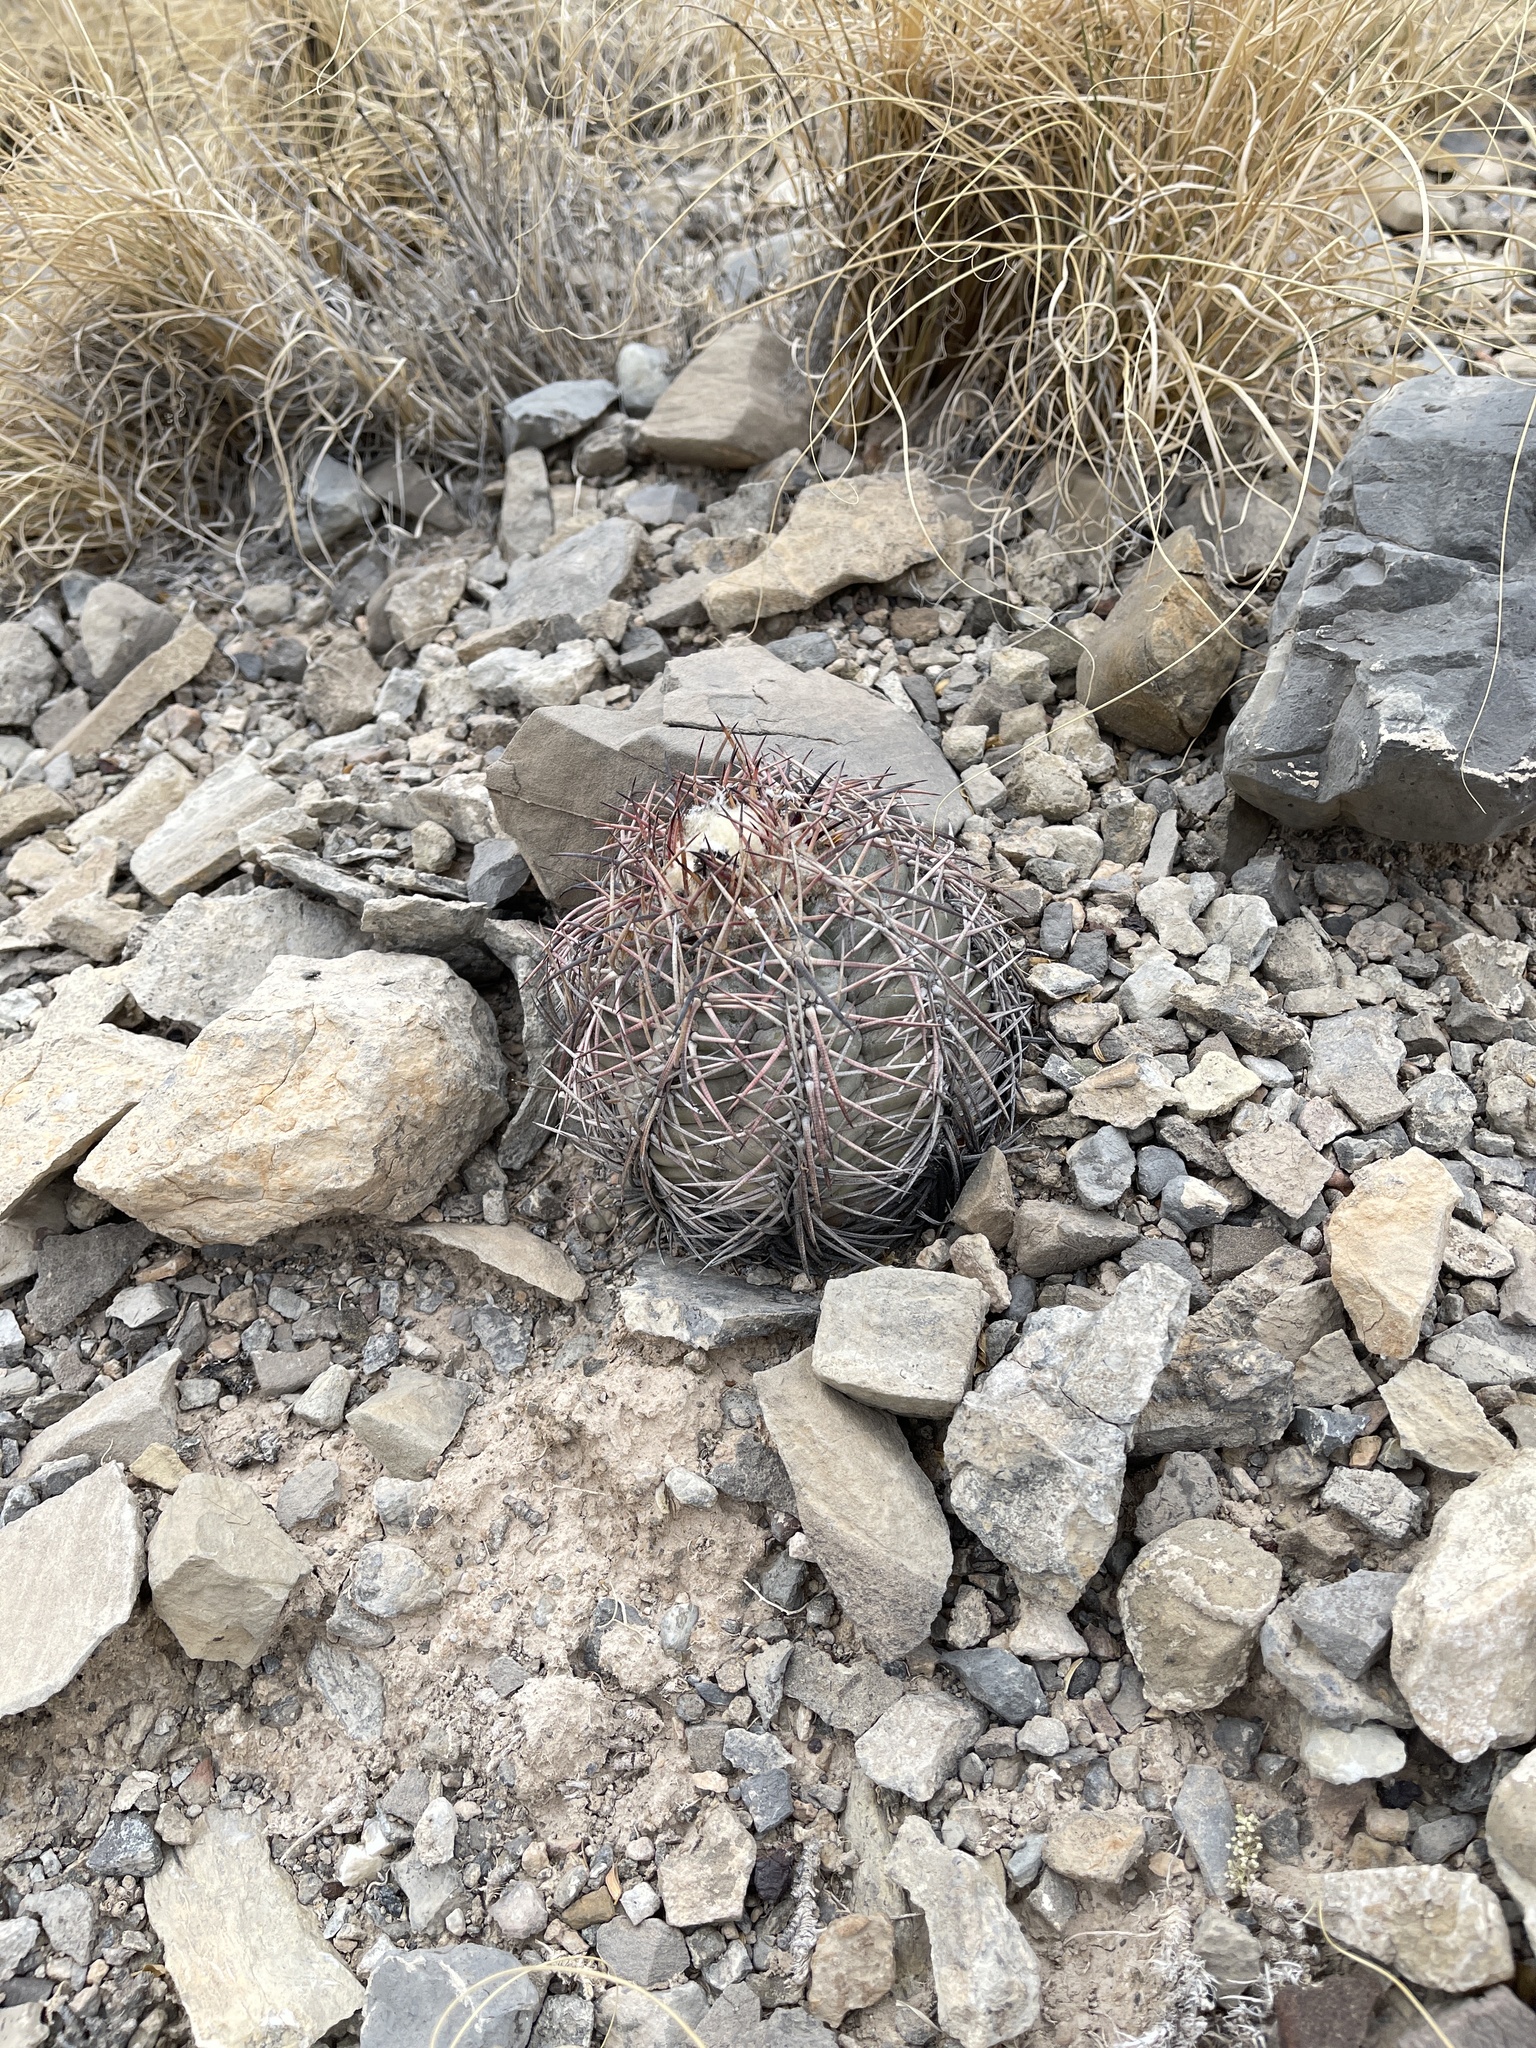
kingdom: Plantae
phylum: Tracheophyta
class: Magnoliopsida
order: Caryophyllales
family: Cactaceae
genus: Echinocactus
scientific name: Echinocactus horizonthalonius
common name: Devilshead
